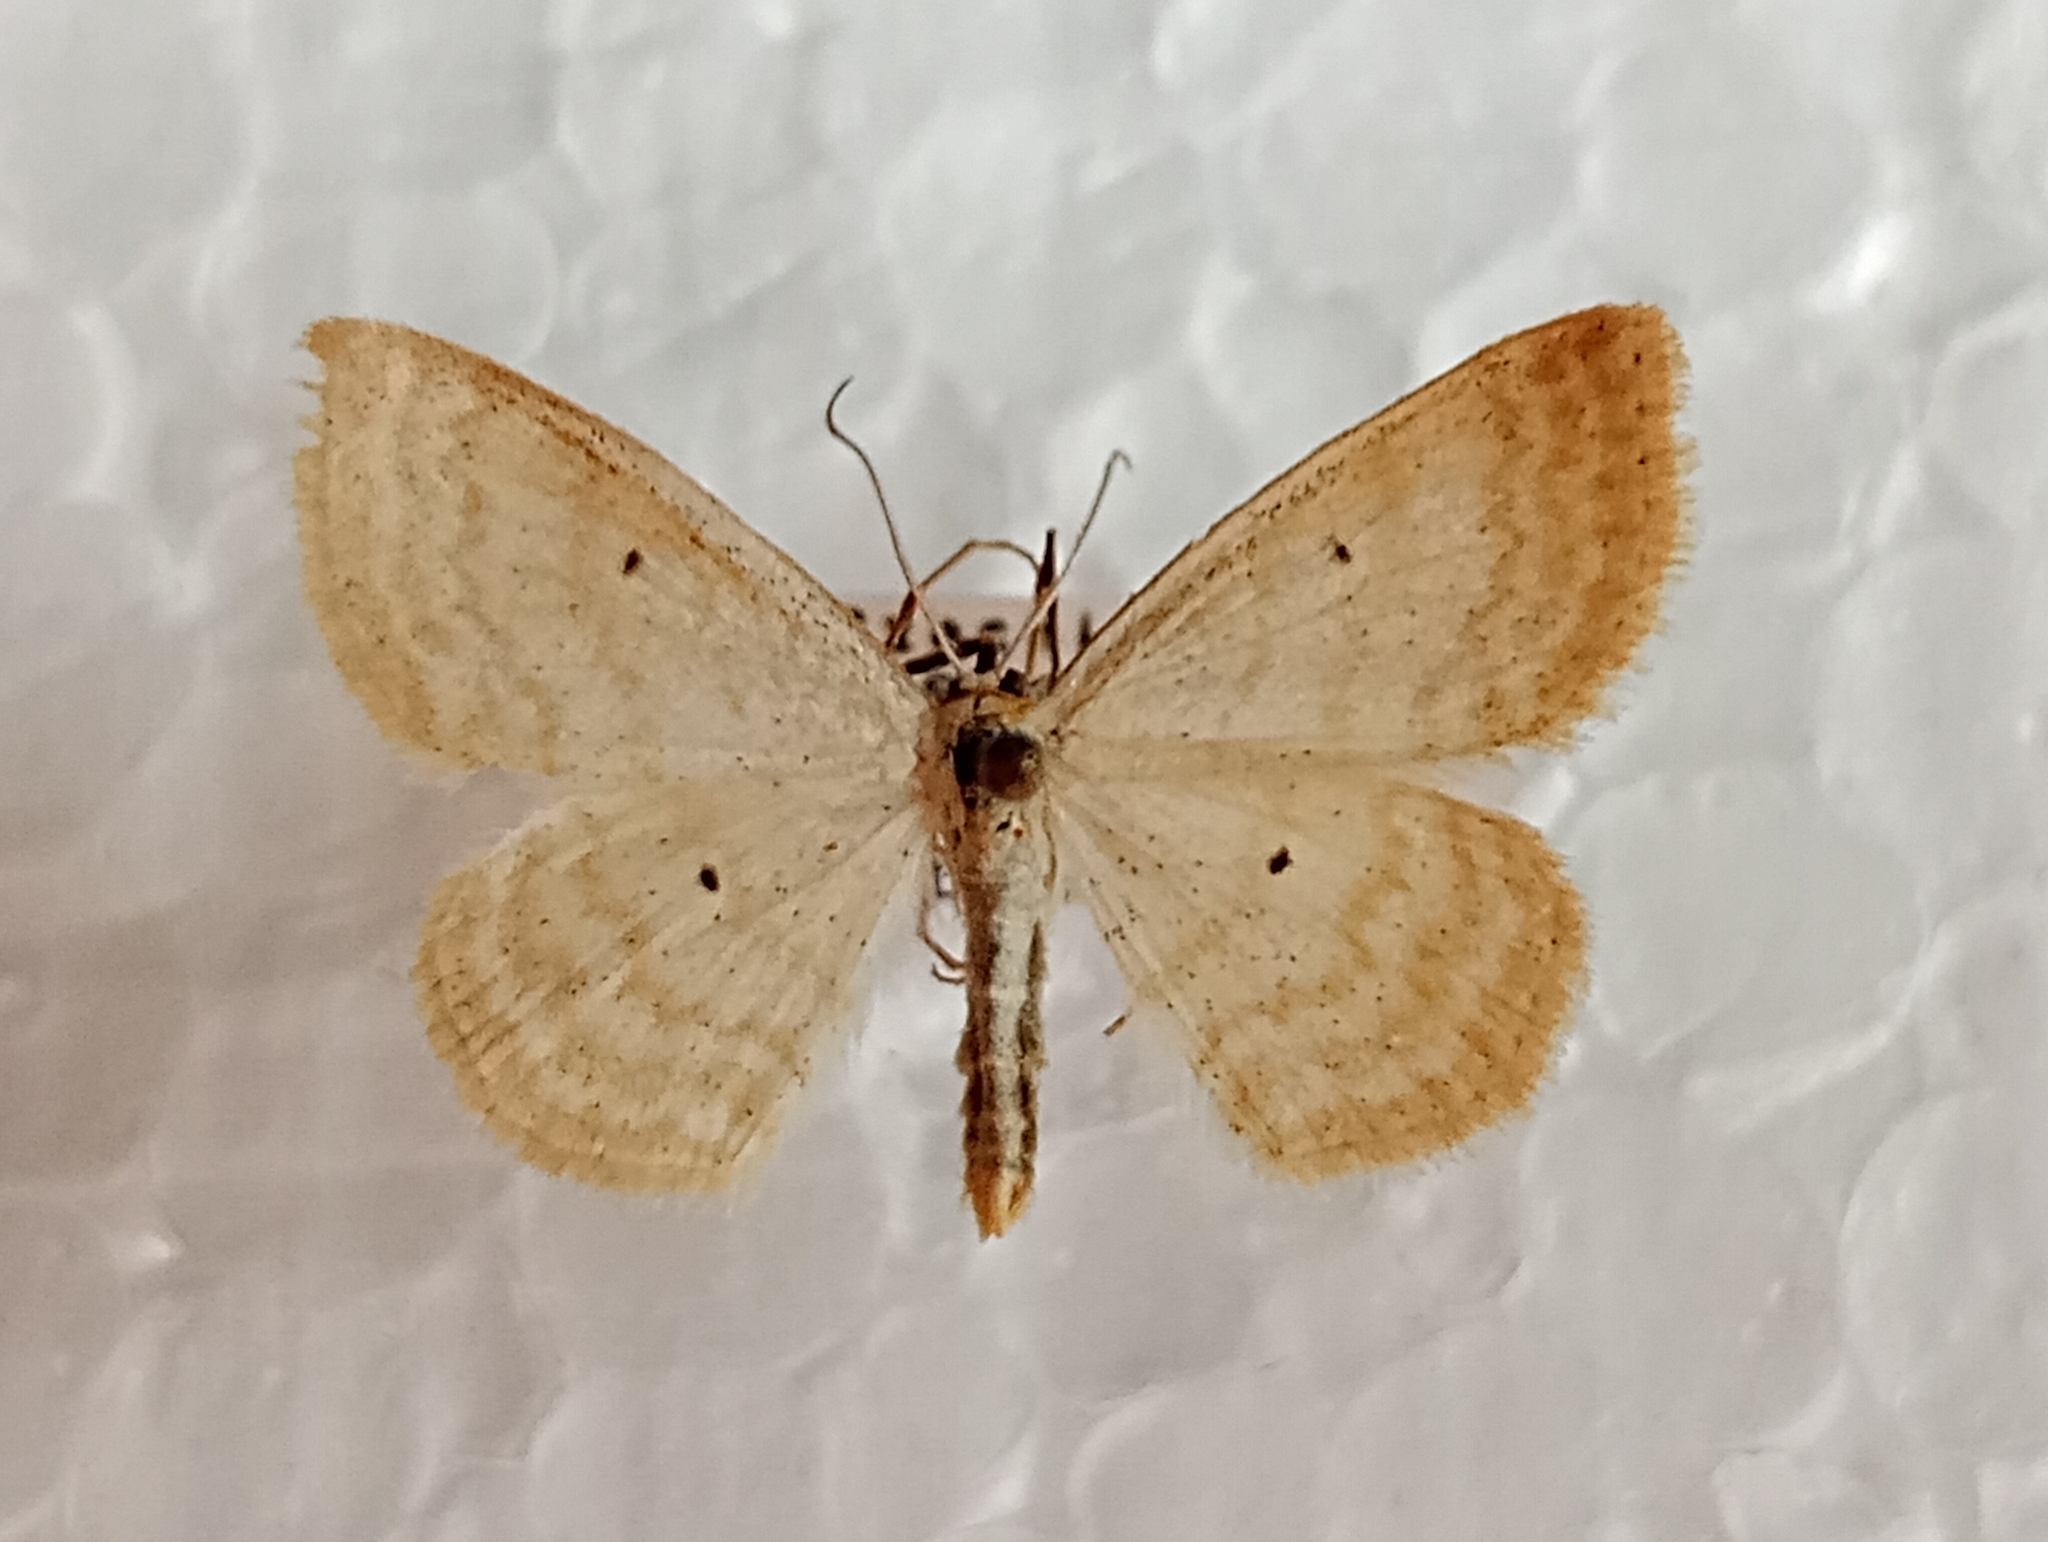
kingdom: Animalia
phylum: Arthropoda
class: Insecta
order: Lepidoptera
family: Geometridae
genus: Scopula
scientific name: Scopula immutata
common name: Lesser cream wave
